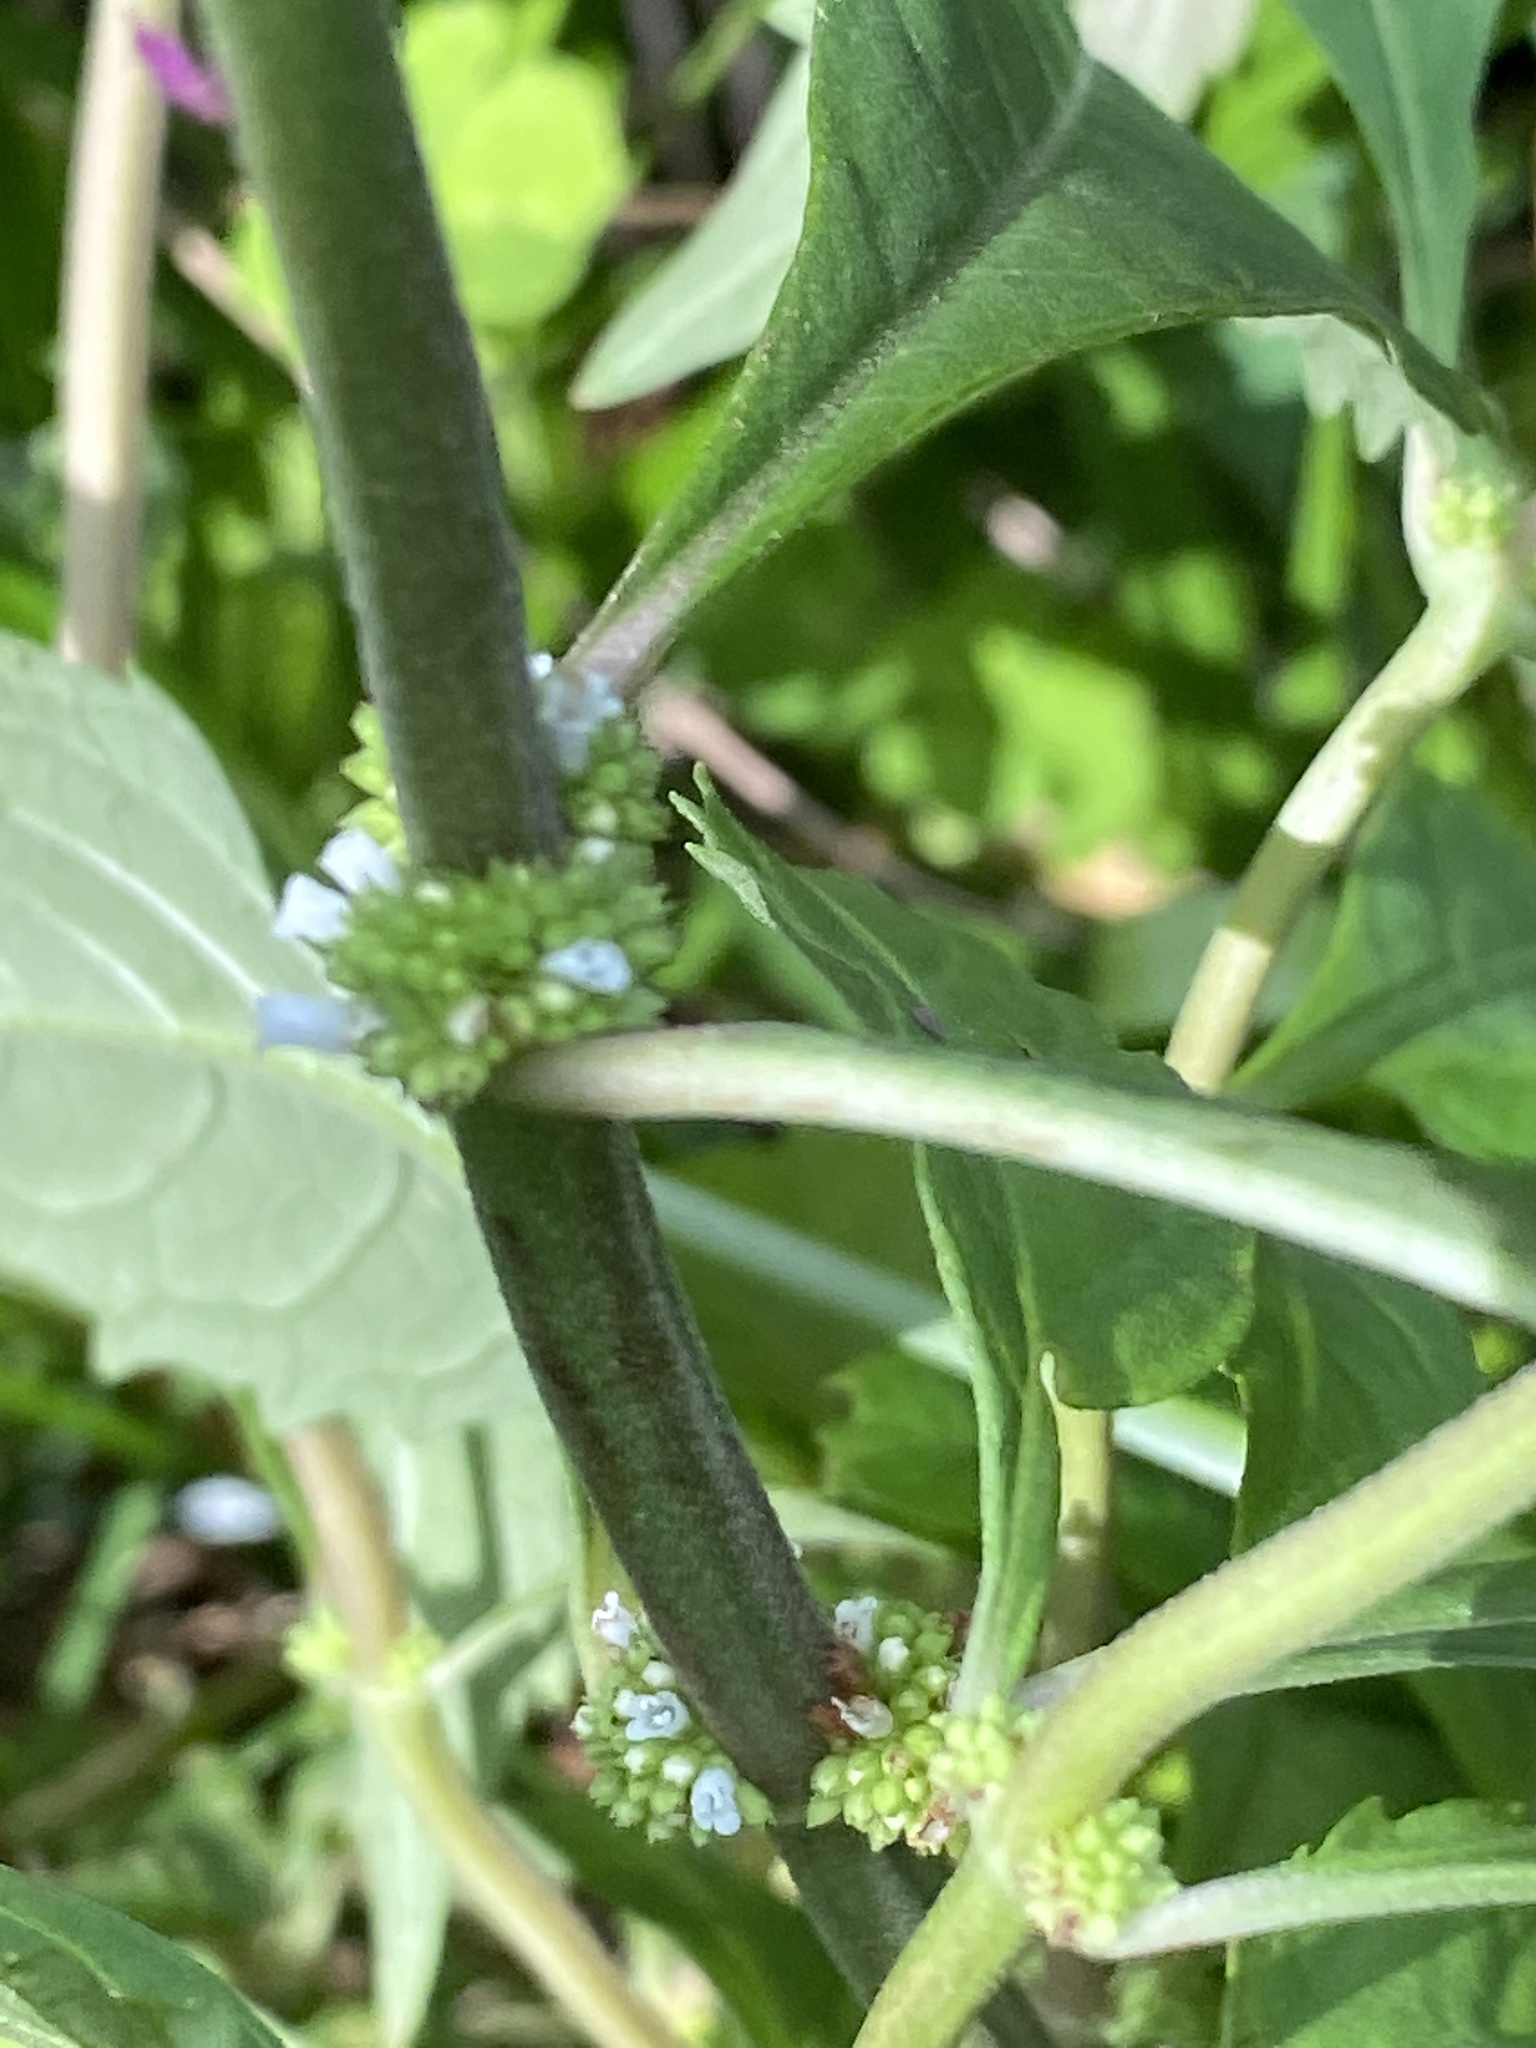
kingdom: Plantae
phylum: Tracheophyta
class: Magnoliopsida
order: Lamiales
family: Lamiaceae
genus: Lycopus
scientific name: Lycopus uniflorus
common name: Northern bugleweed
